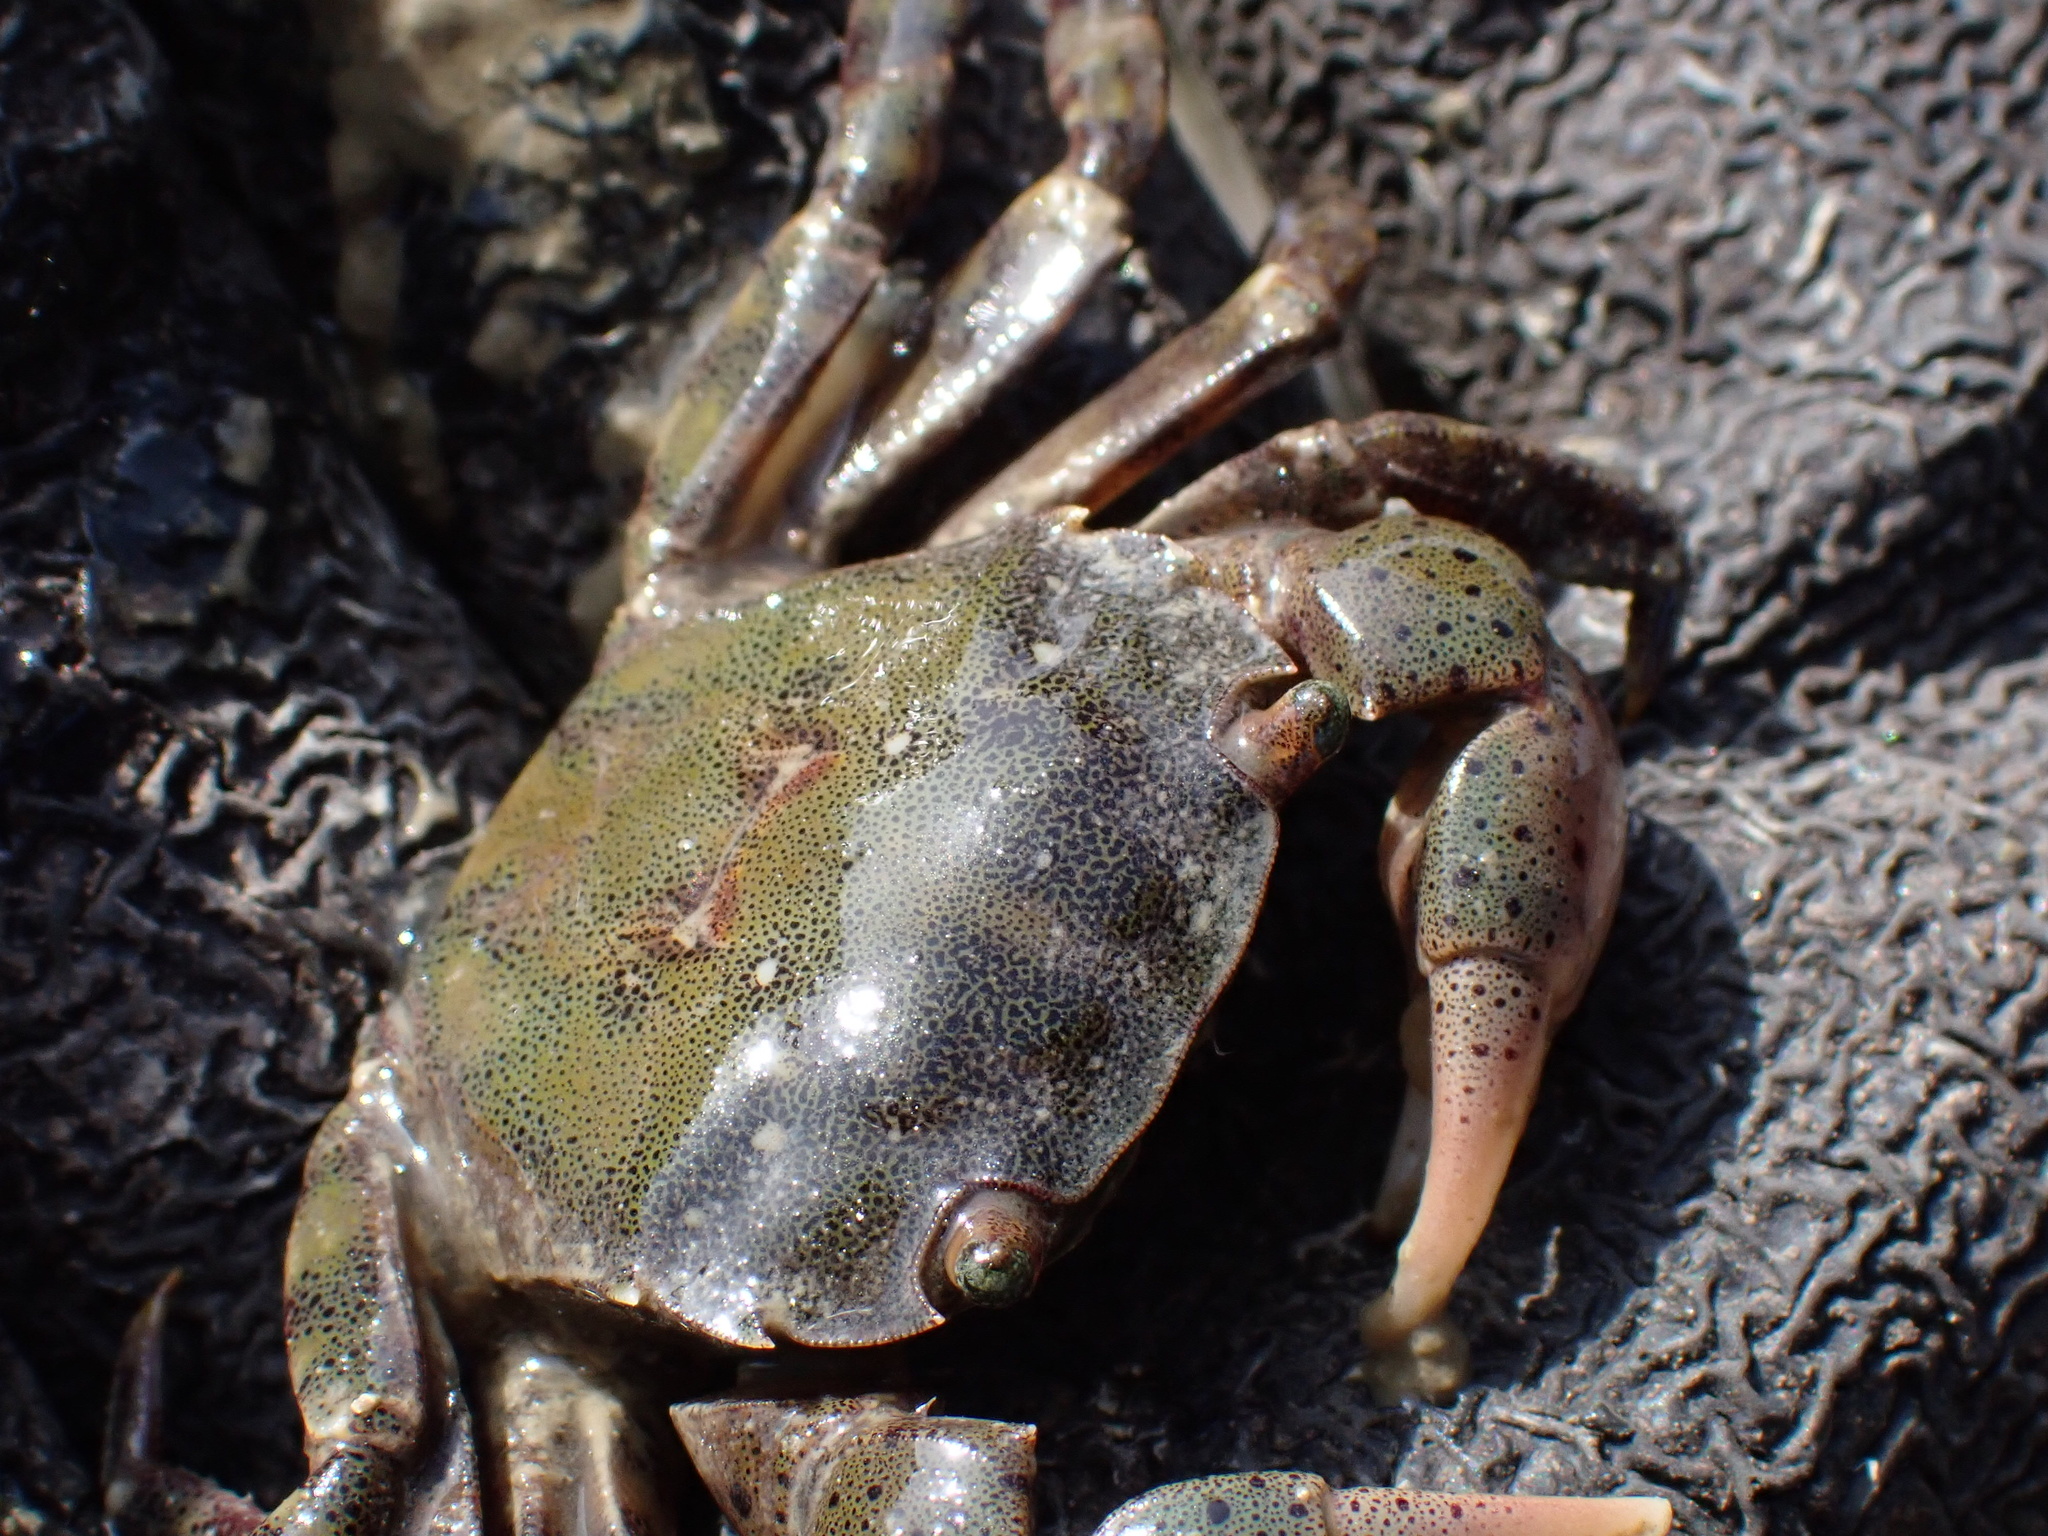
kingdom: Animalia
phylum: Arthropoda
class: Malacostraca
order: Decapoda
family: Varunidae
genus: Hemigrapsus
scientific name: Hemigrapsus sanguineus
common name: Asian shore crab
